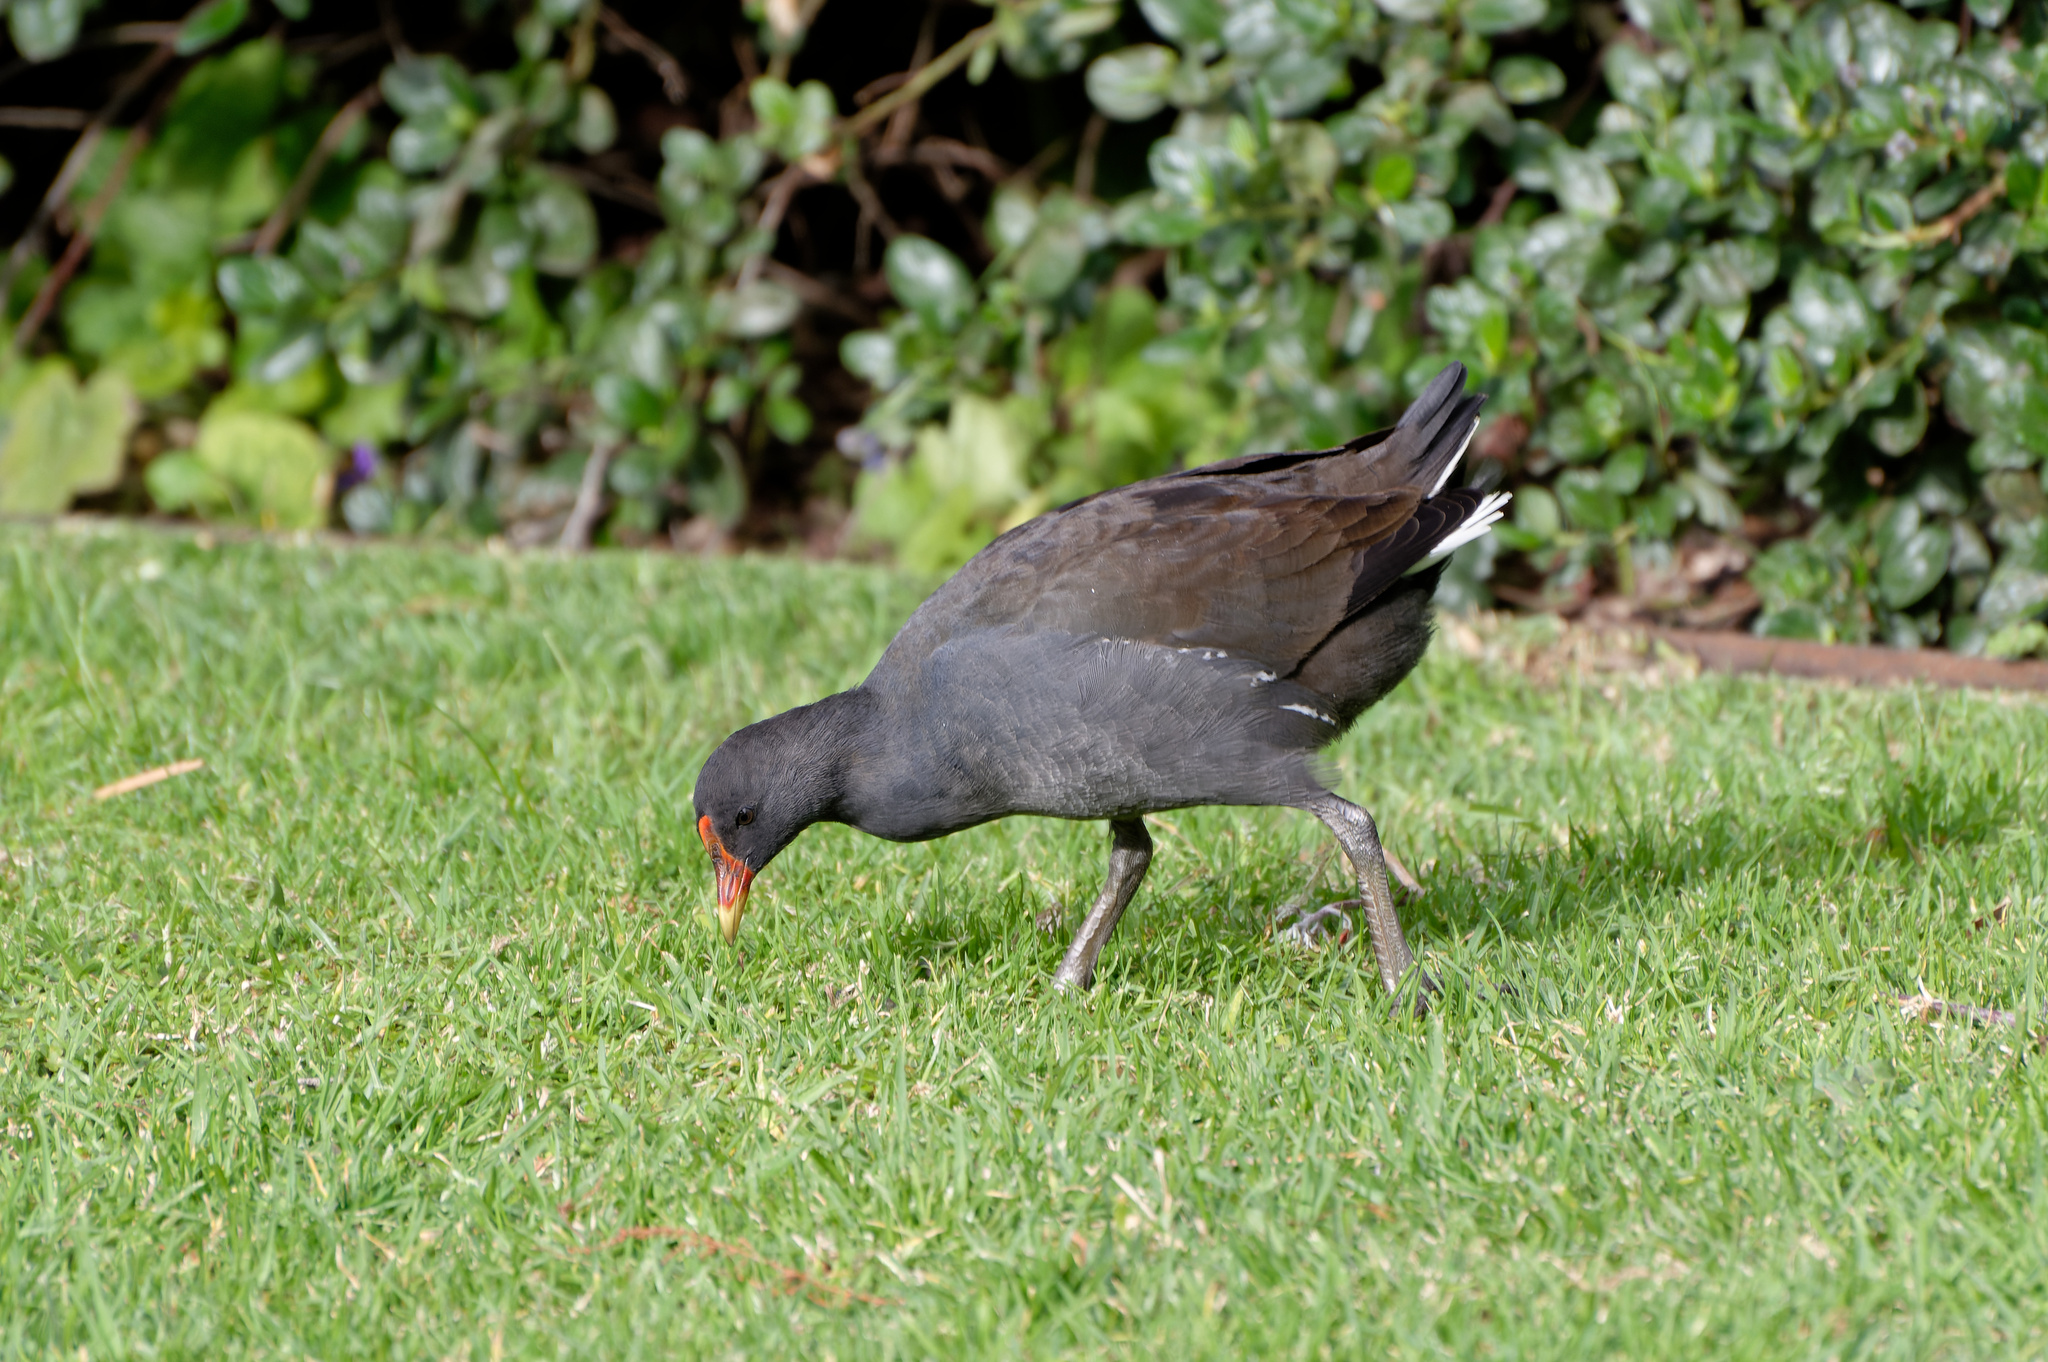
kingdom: Animalia
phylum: Chordata
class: Aves
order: Gruiformes
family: Rallidae
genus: Gallinula
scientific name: Gallinula tenebrosa
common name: Dusky moorhen
